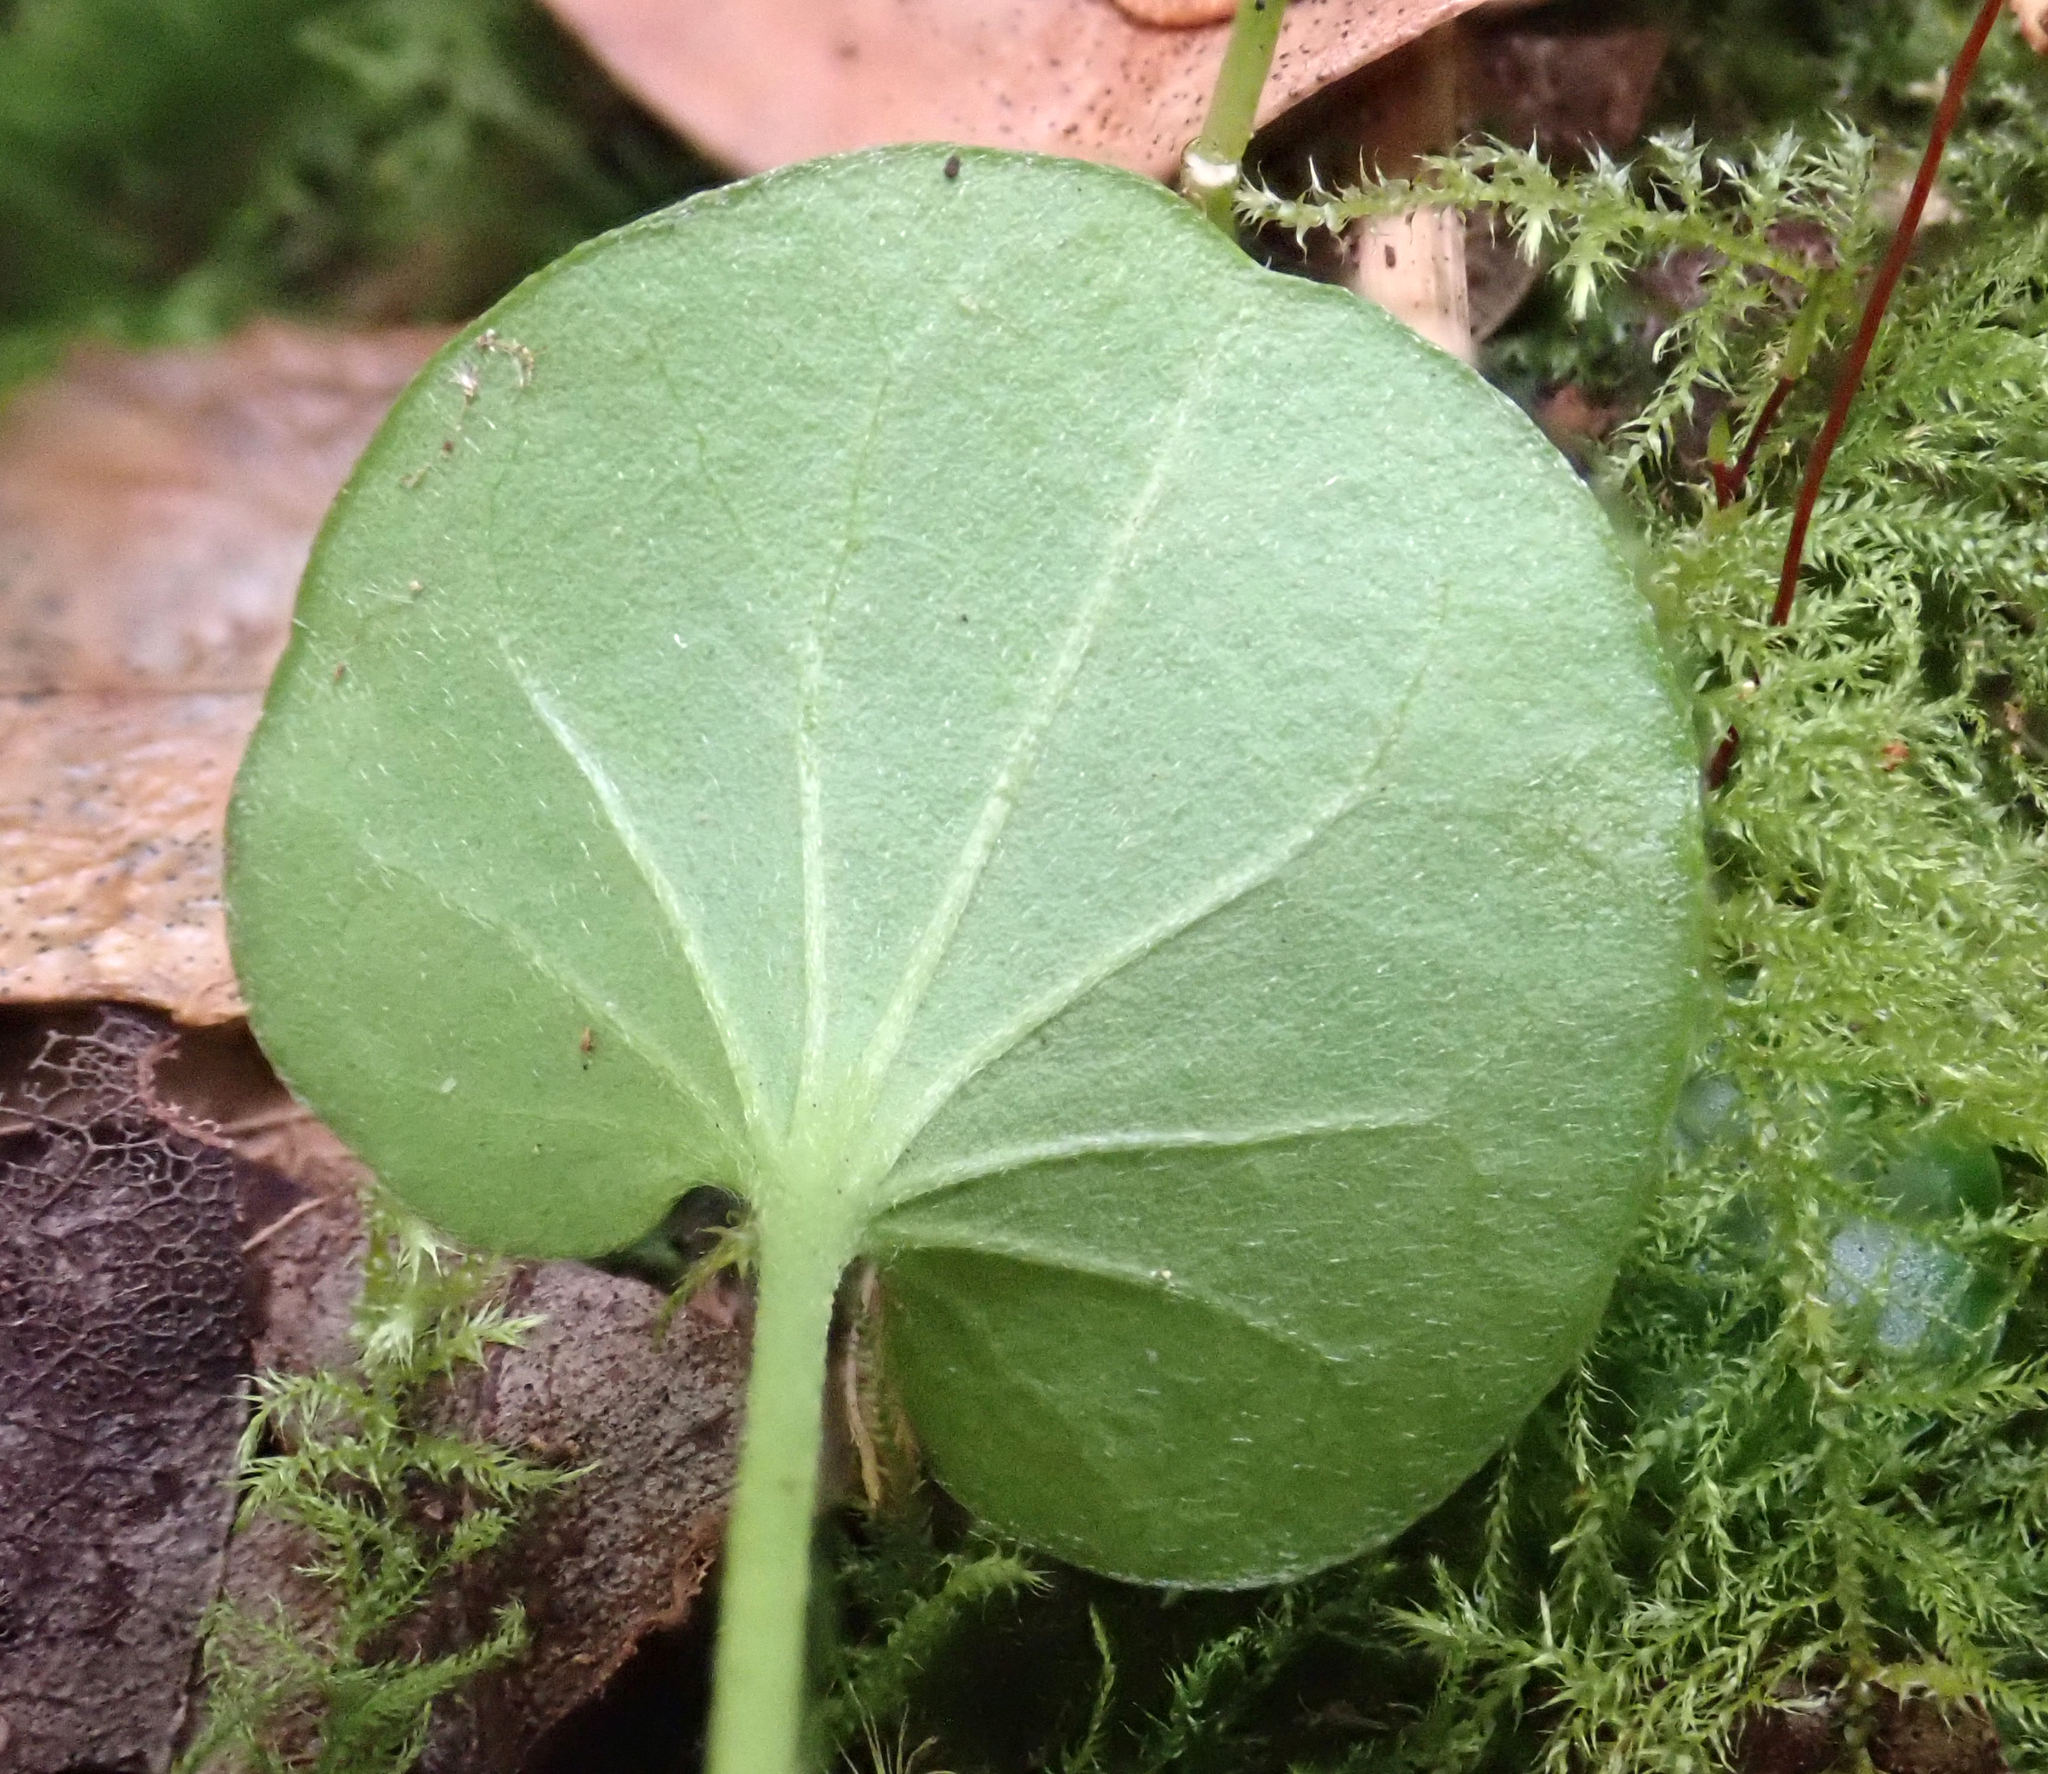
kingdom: Plantae
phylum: Tracheophyta
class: Magnoliopsida
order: Solanales
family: Convolvulaceae
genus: Dichondra
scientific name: Dichondra brevifolia
